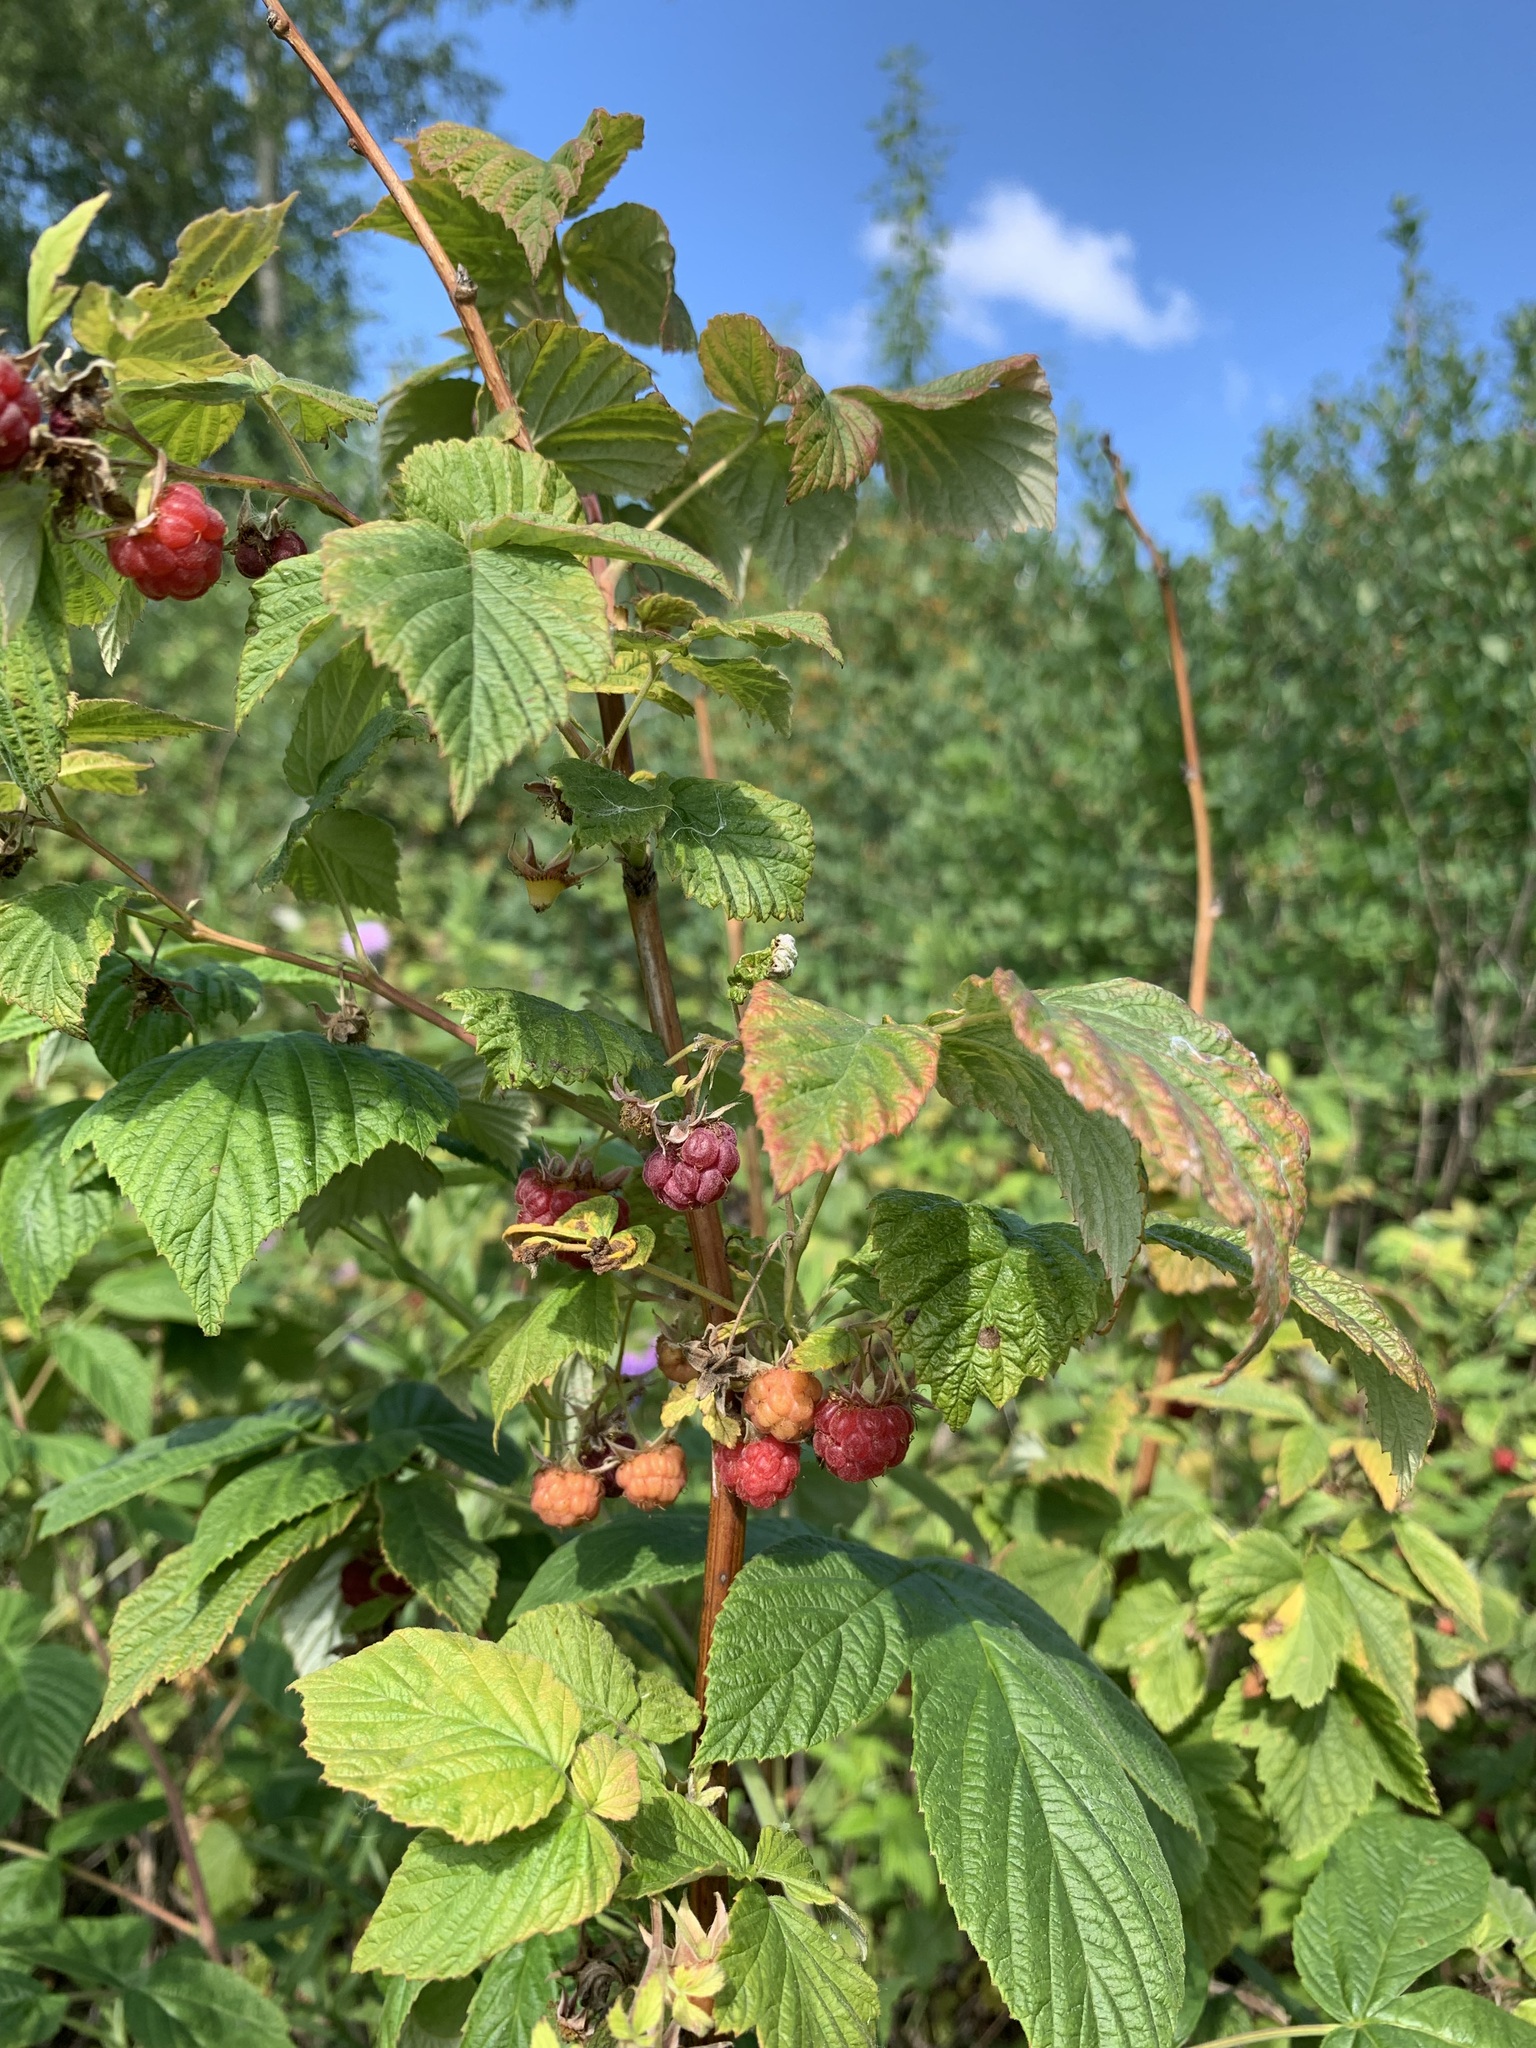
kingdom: Plantae
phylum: Tracheophyta
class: Magnoliopsida
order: Rosales
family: Rosaceae
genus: Rubus
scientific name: Rubus idaeus
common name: Raspberry
